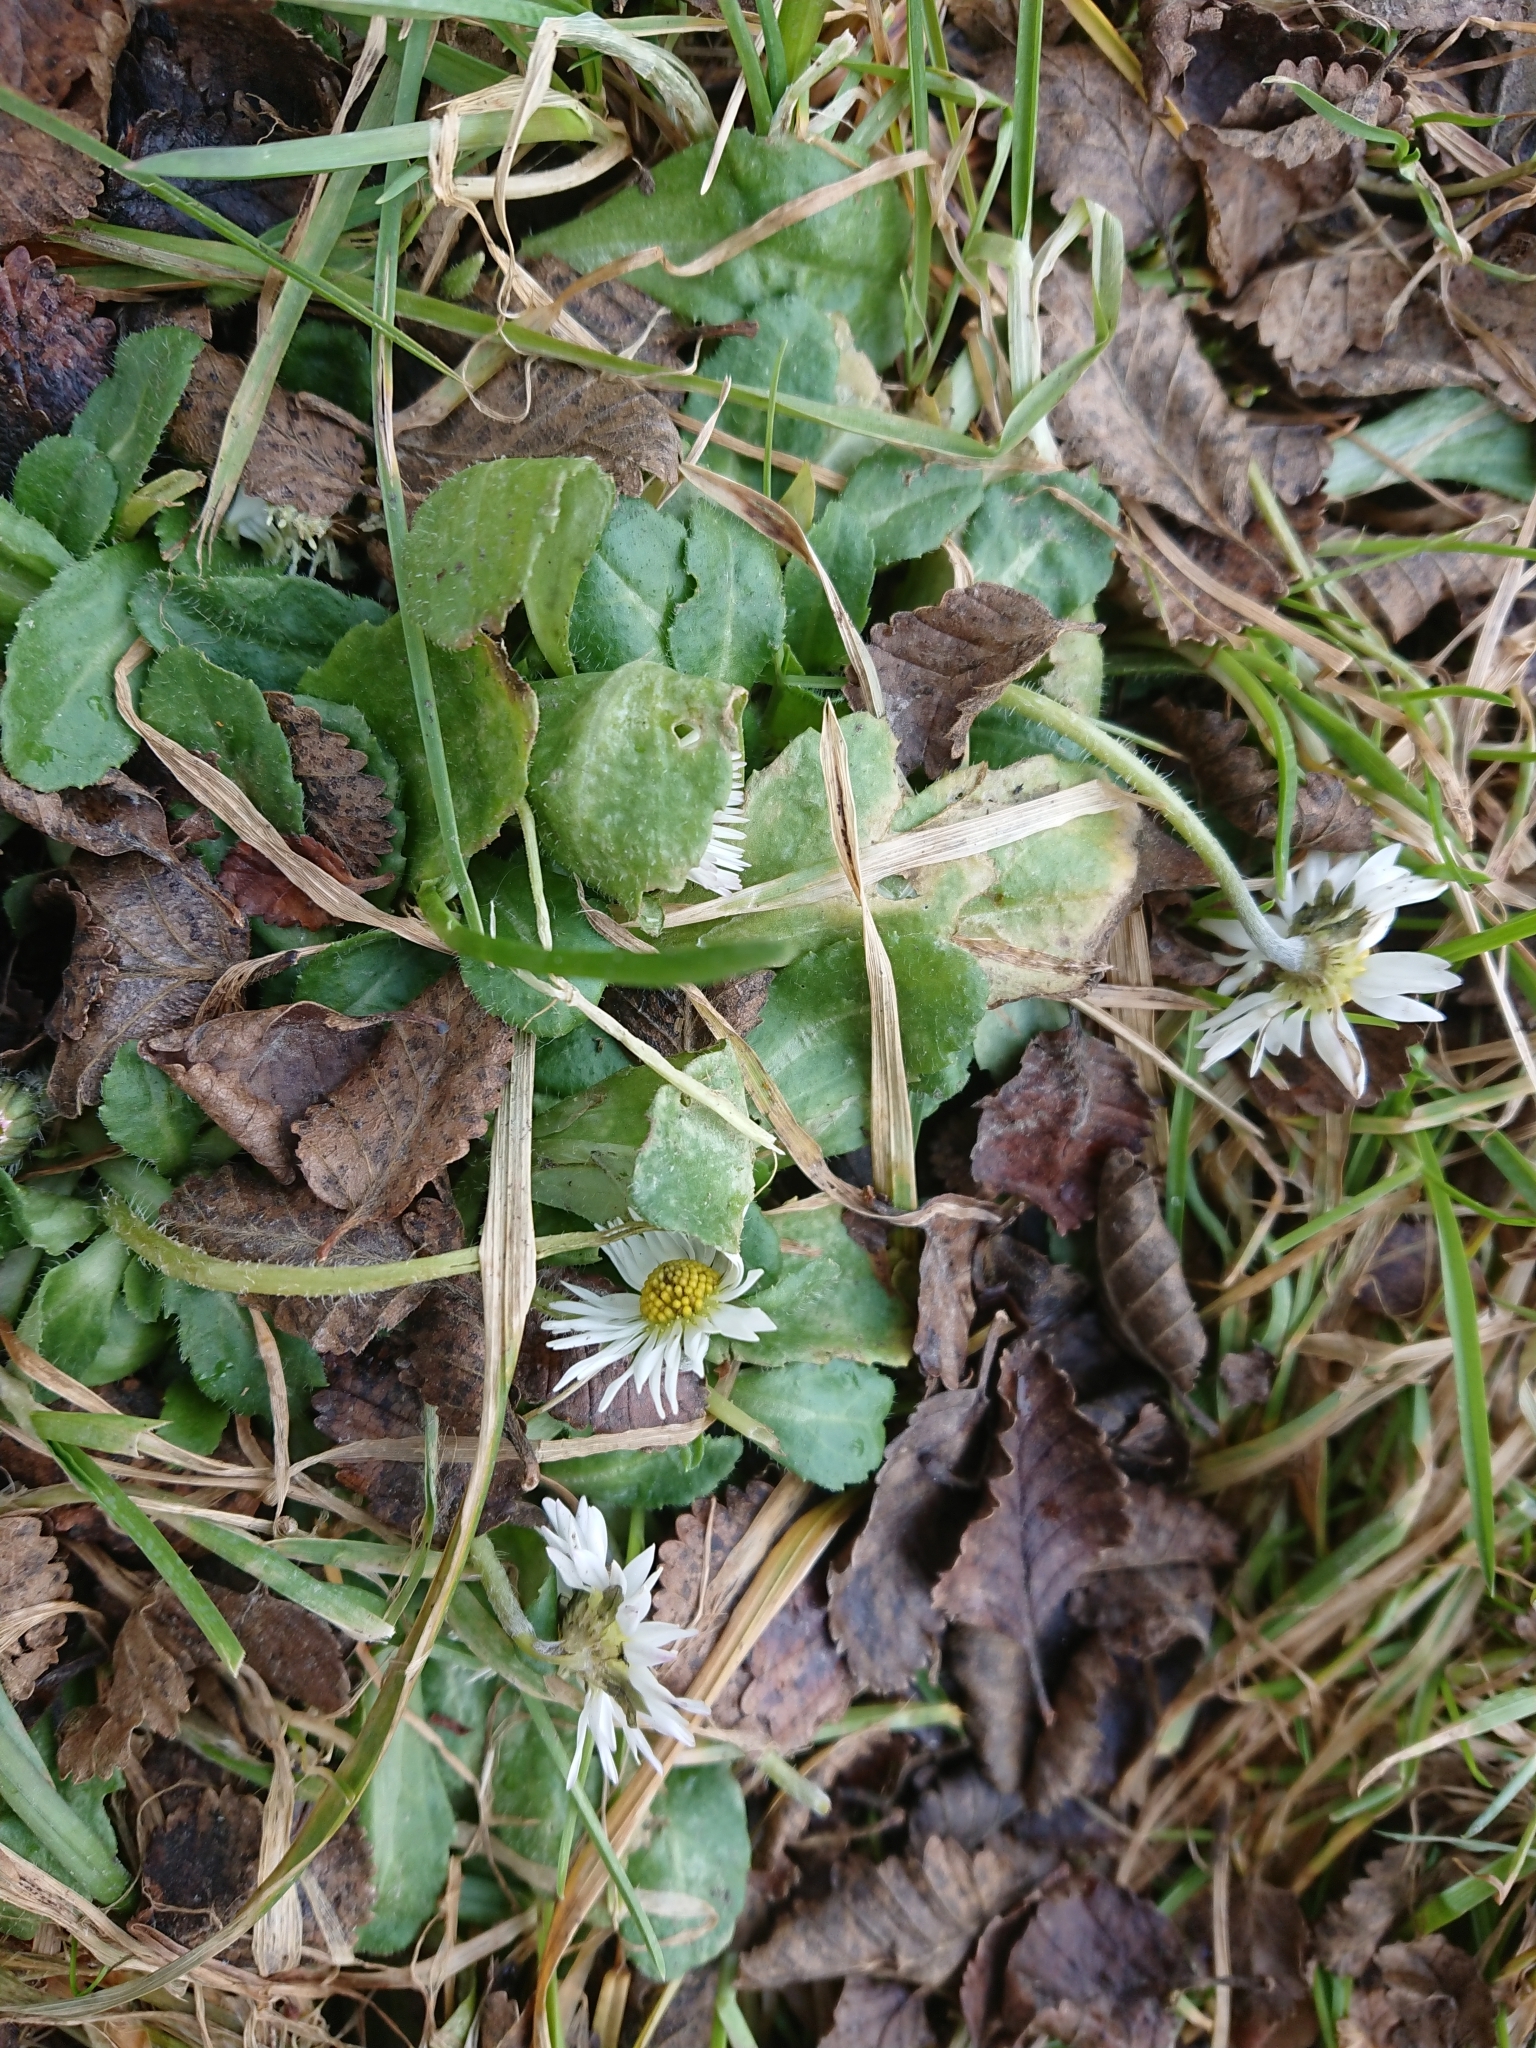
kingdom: Plantae
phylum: Tracheophyta
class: Magnoliopsida
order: Asterales
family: Asteraceae
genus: Bellis
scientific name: Bellis perennis
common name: Lawndaisy
